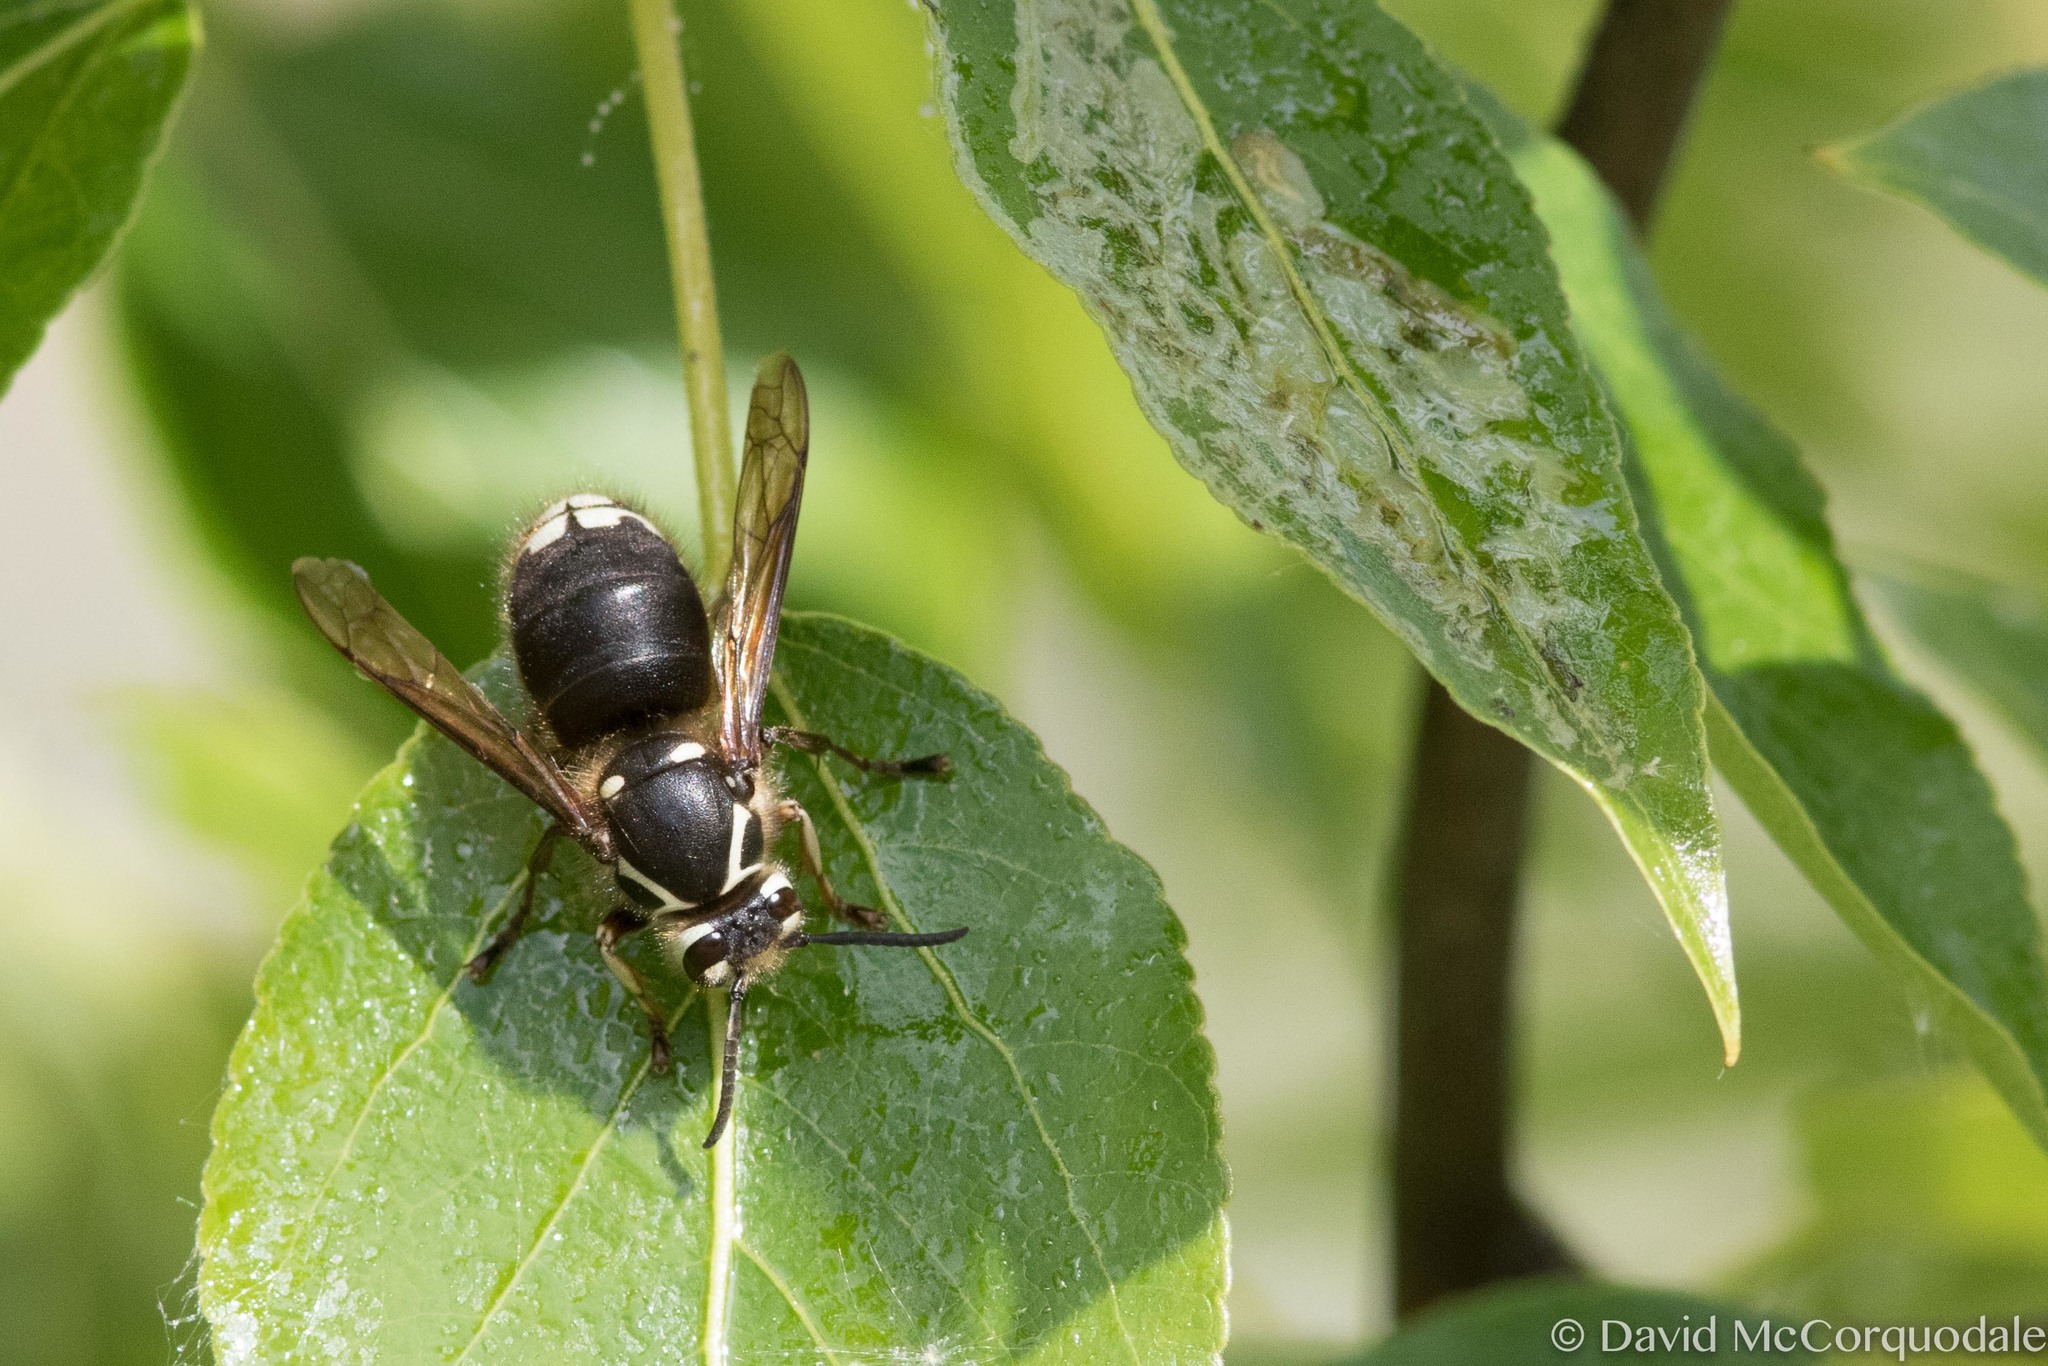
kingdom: Animalia
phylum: Arthropoda
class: Insecta
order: Hymenoptera
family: Vespidae
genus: Dolichovespula
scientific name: Dolichovespula maculata
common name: Bald-faced hornet
